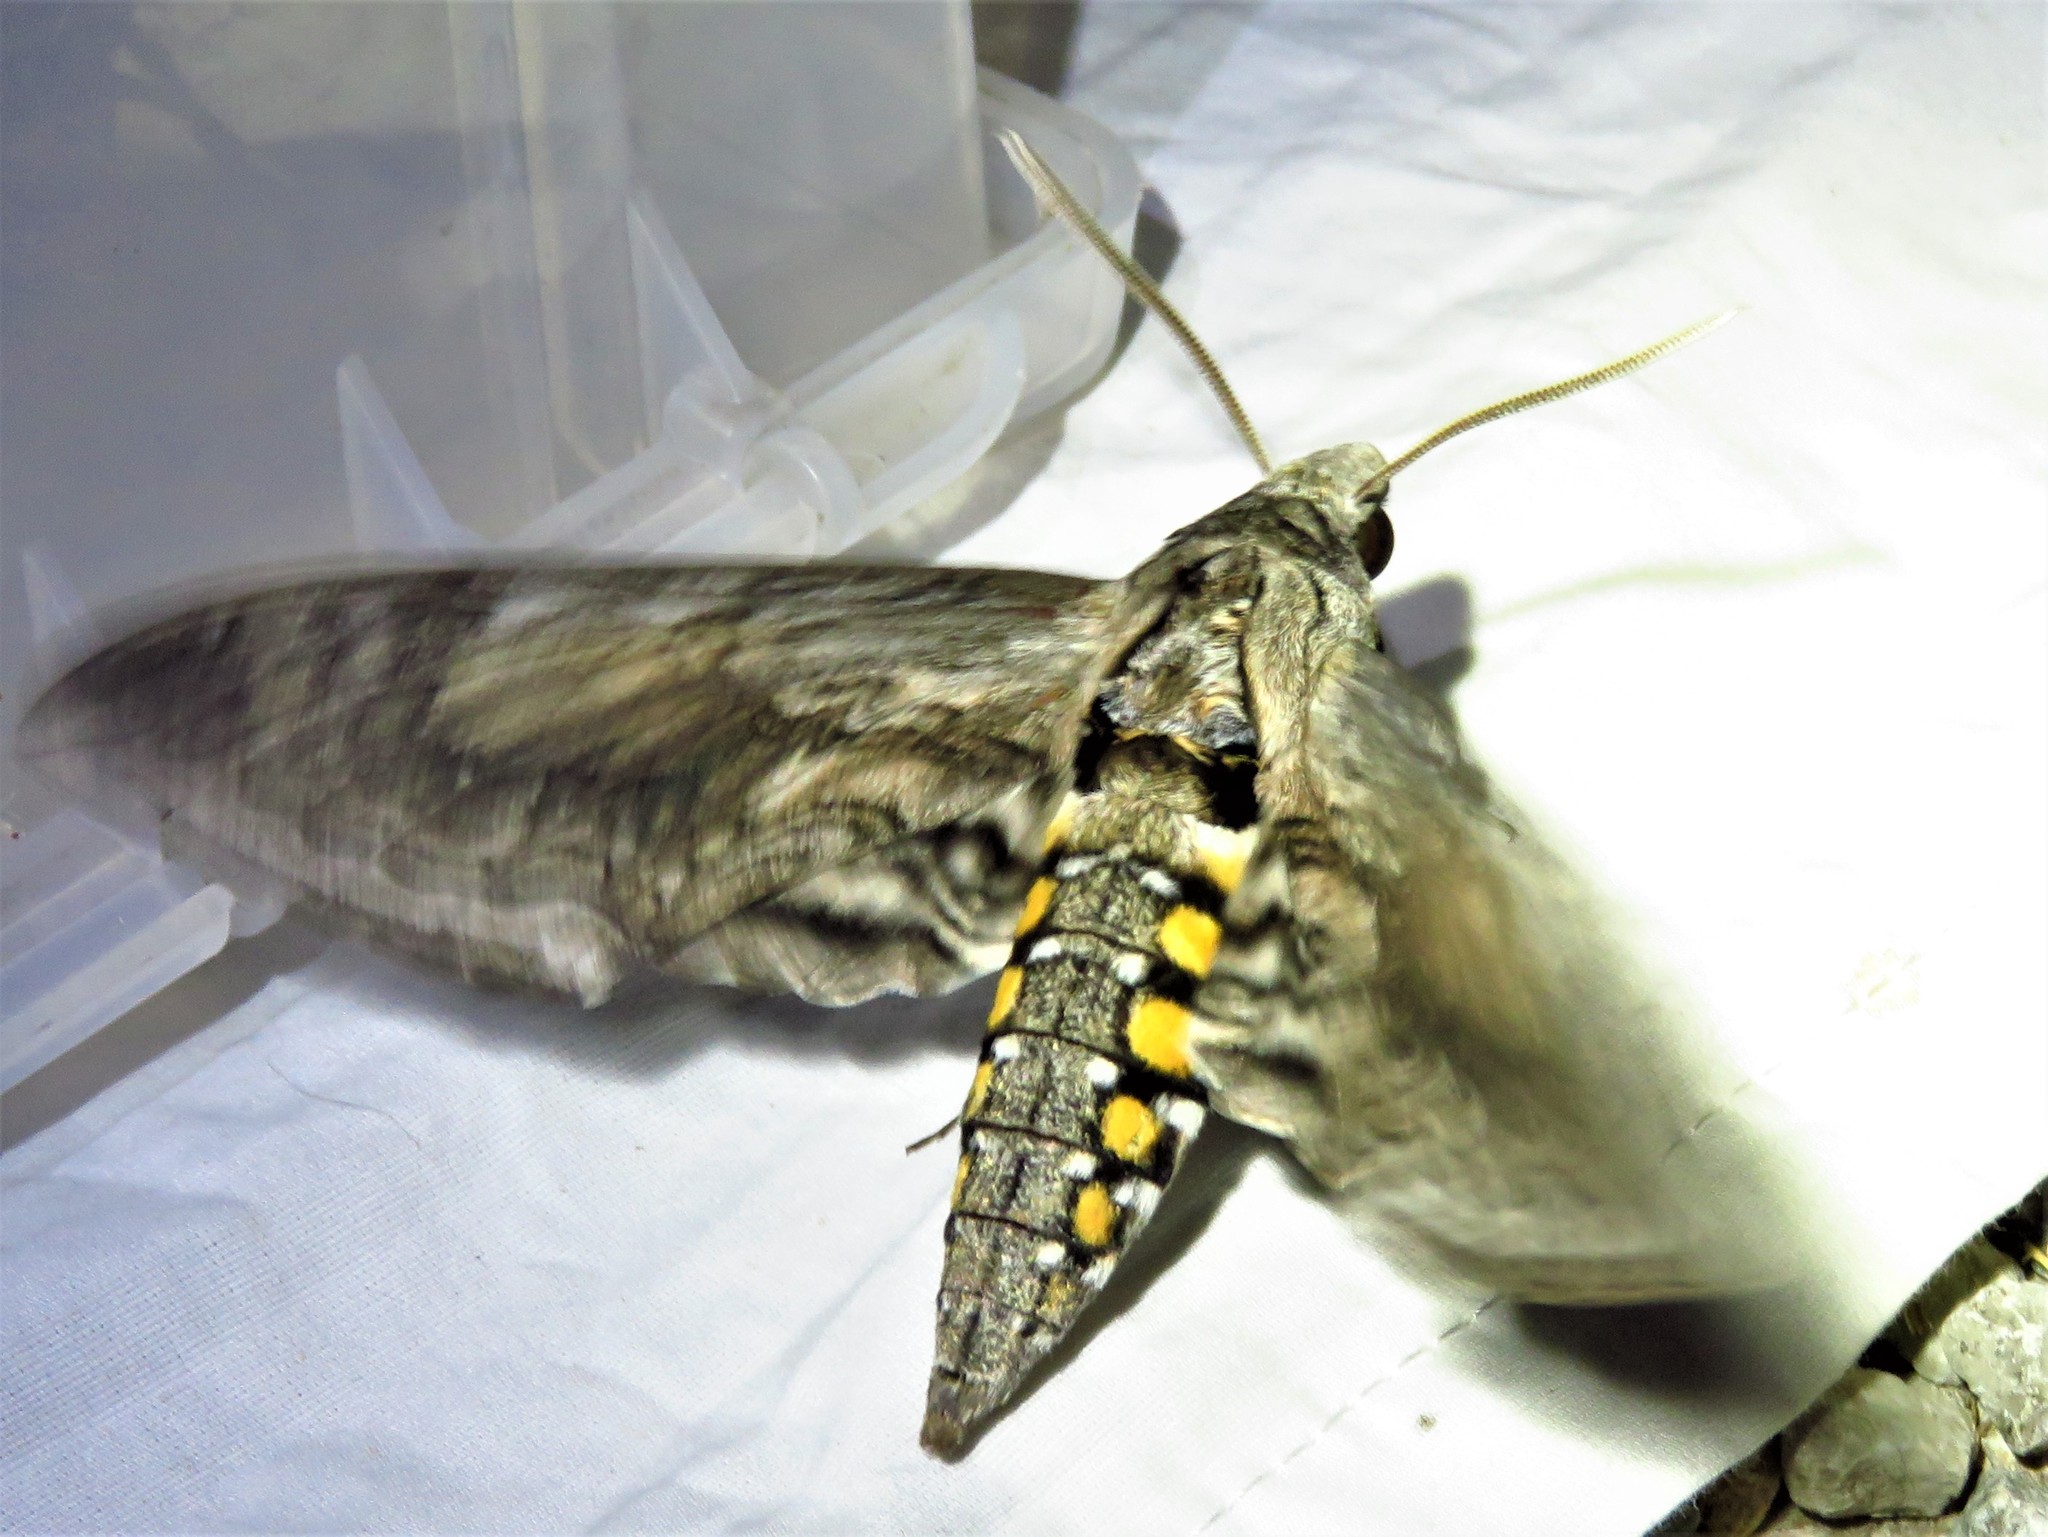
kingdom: Animalia
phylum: Arthropoda
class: Insecta
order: Lepidoptera
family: Sphingidae
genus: Manduca
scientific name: Manduca quinquemaculatus
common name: Five-spotted hawk-moth
